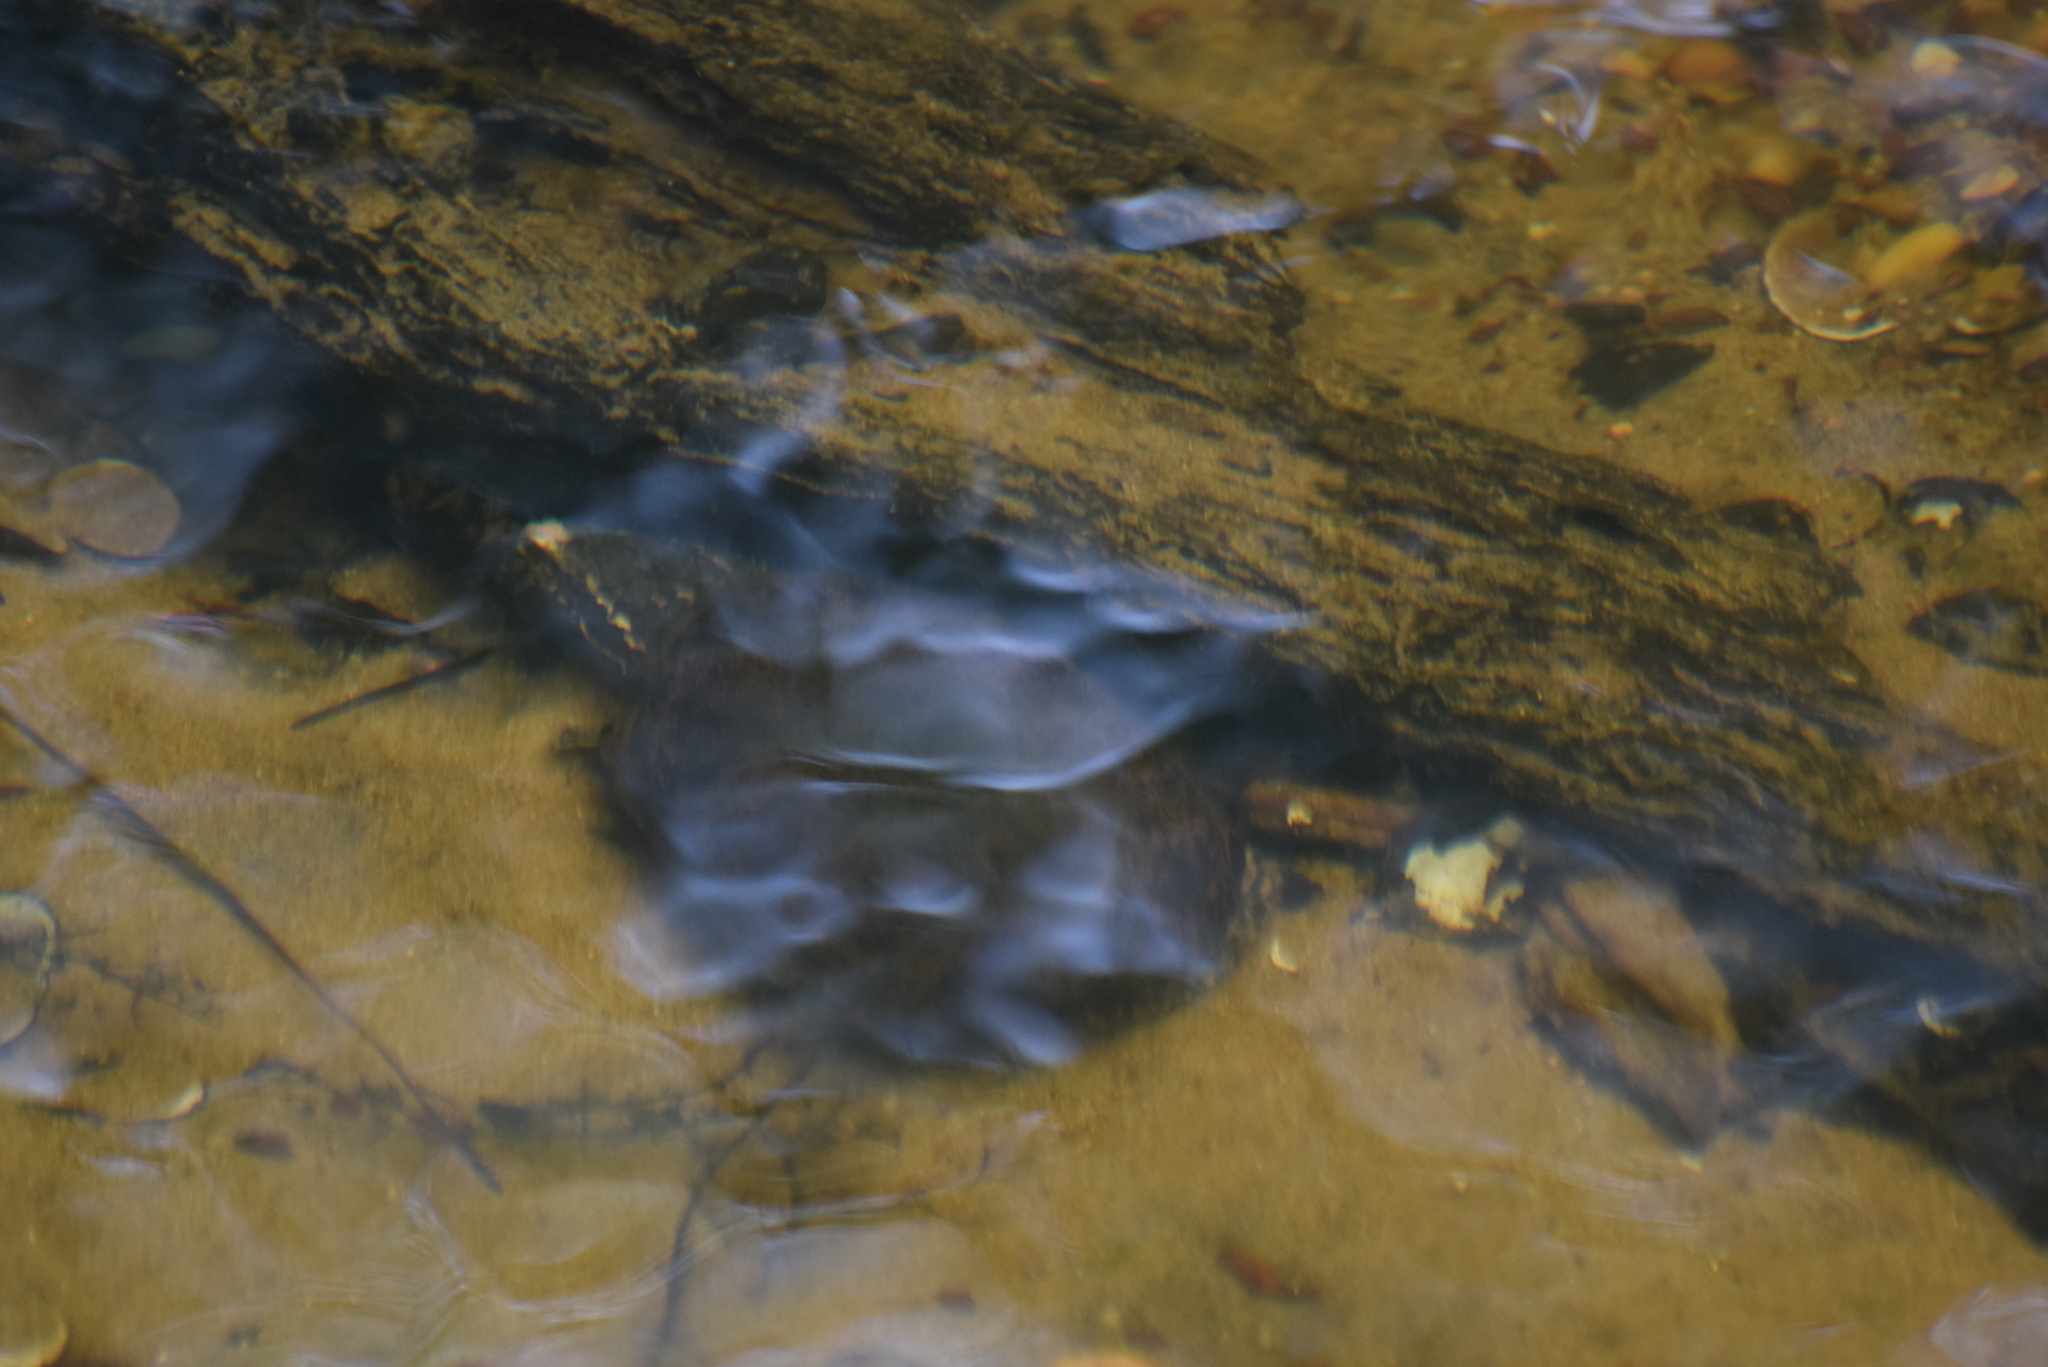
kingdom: Animalia
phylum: Chordata
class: Testudines
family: Kinosternidae
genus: Sternotherus
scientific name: Sternotherus odoratus
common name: Common musk turtle
